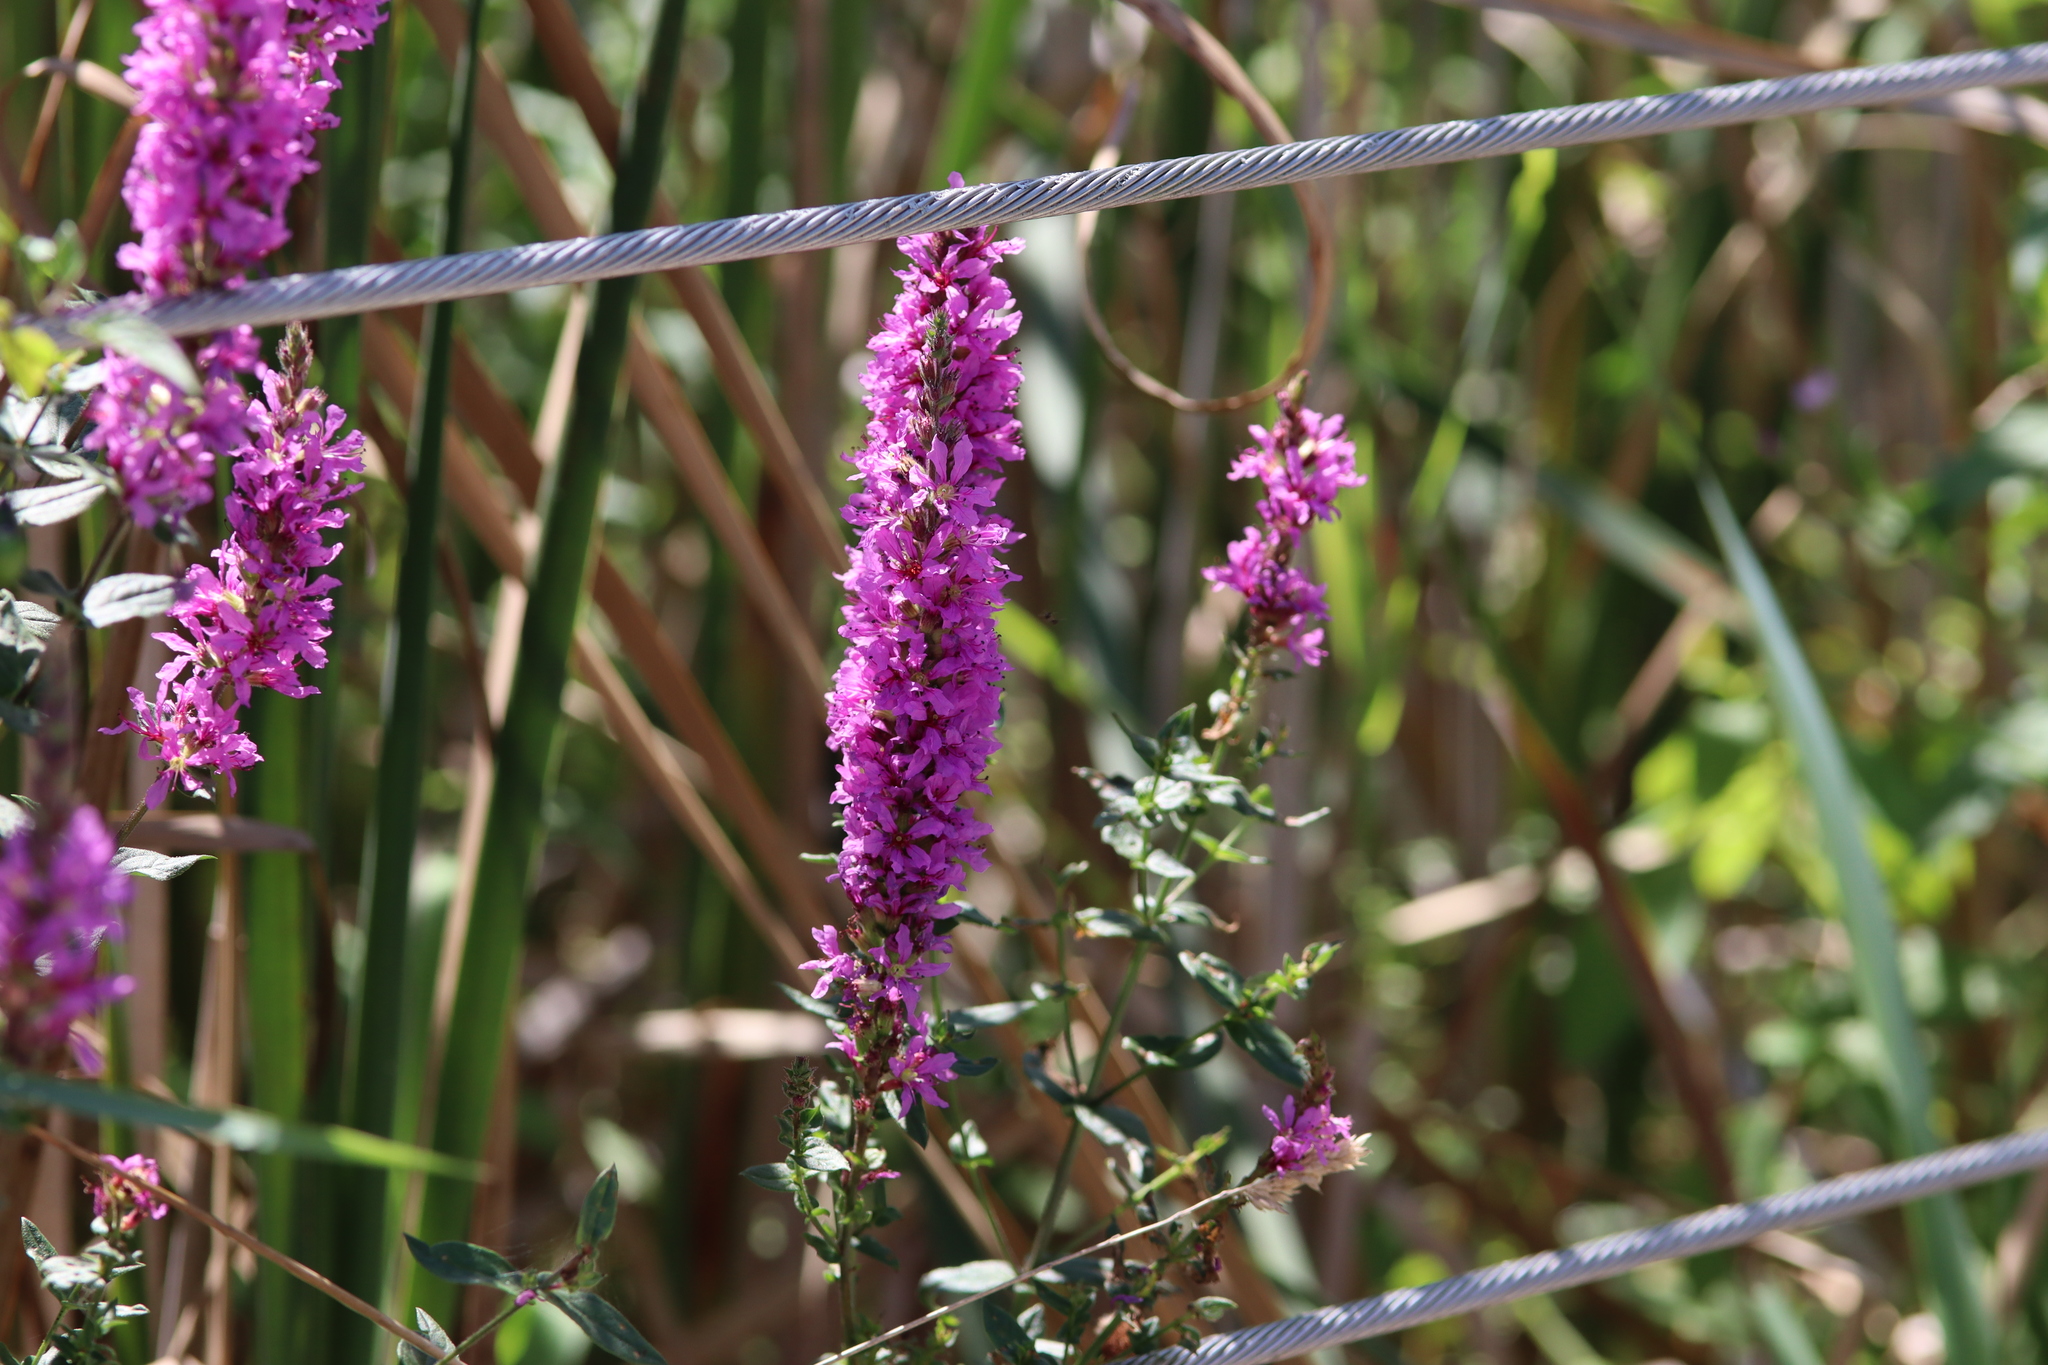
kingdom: Plantae
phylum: Tracheophyta
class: Magnoliopsida
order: Myrtales
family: Lythraceae
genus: Lythrum
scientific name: Lythrum salicaria
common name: Purple loosestrife
